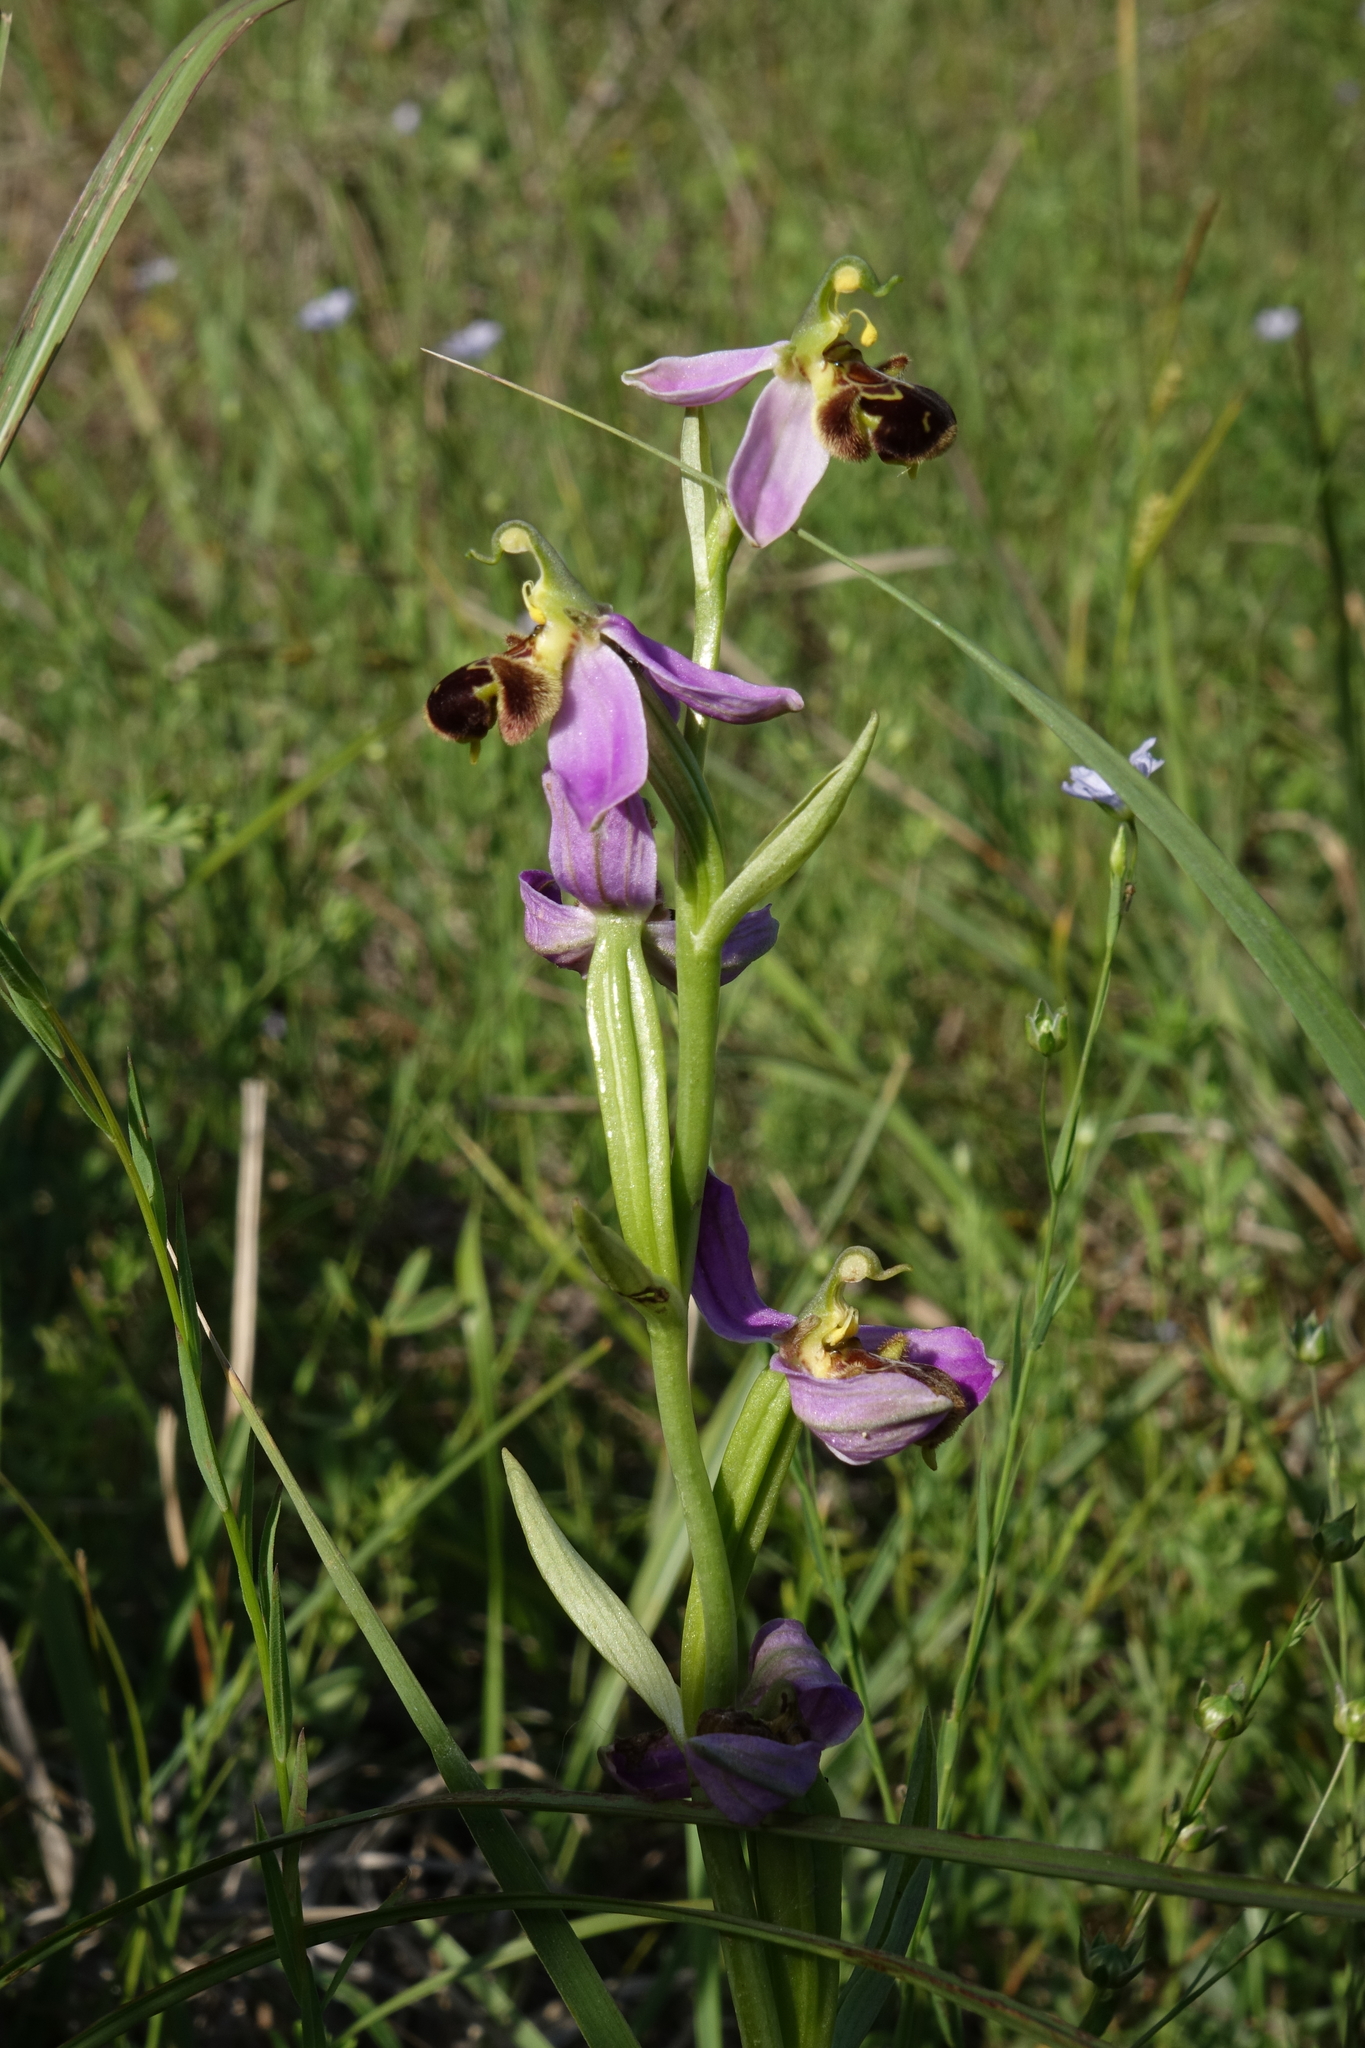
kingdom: Plantae
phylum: Tracheophyta
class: Liliopsida
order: Asparagales
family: Orchidaceae
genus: Ophrys
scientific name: Ophrys apifera
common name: Bee orchid
